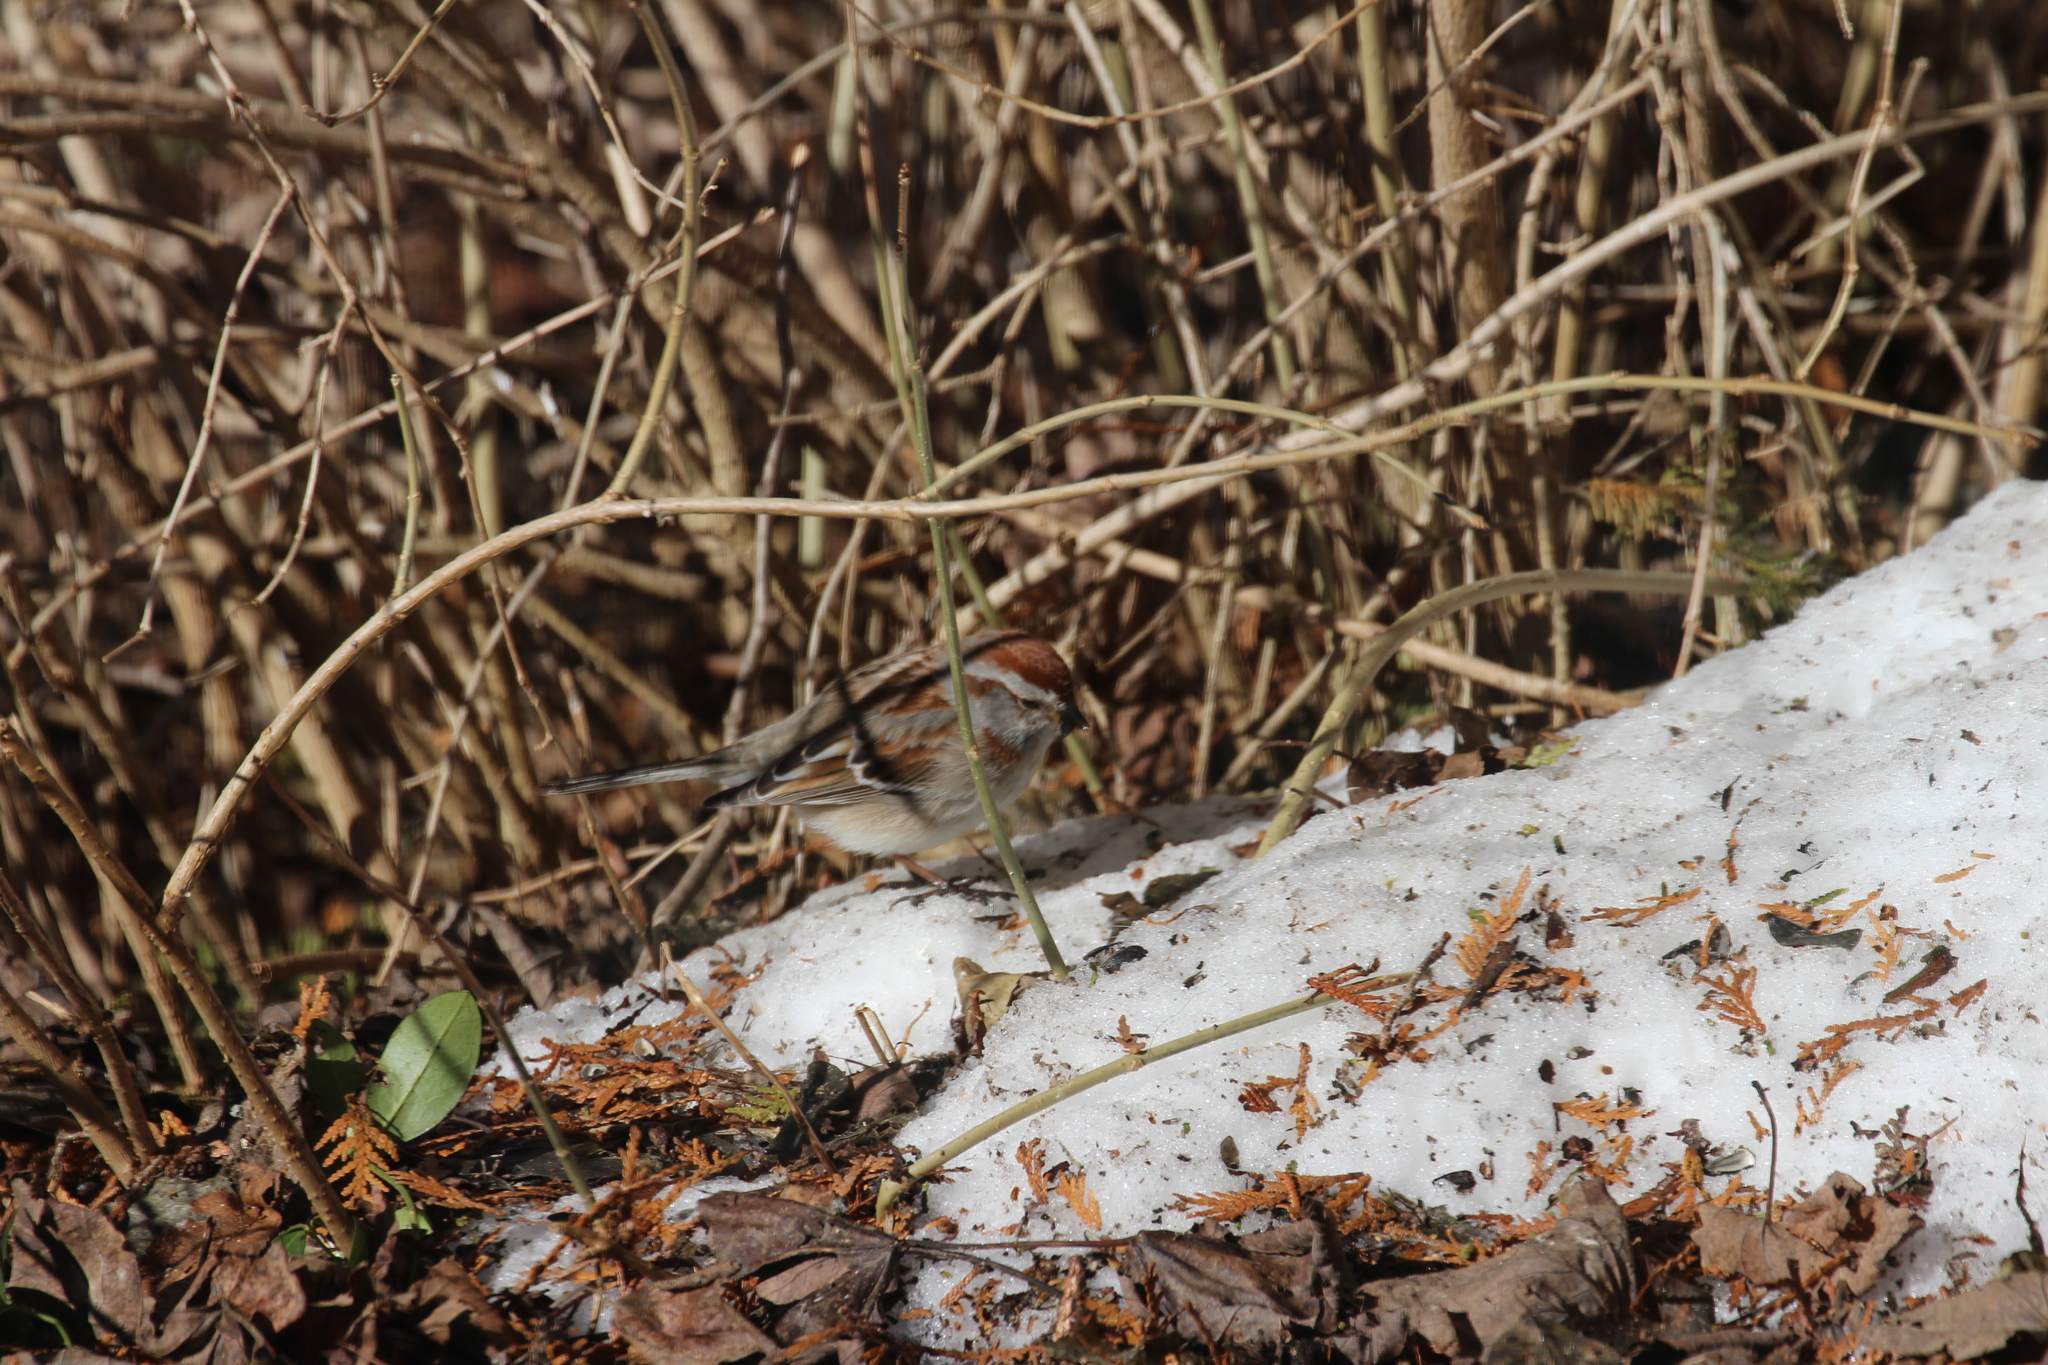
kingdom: Animalia
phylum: Chordata
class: Aves
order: Passeriformes
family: Passerellidae
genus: Spizelloides
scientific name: Spizelloides arborea
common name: American tree sparrow
